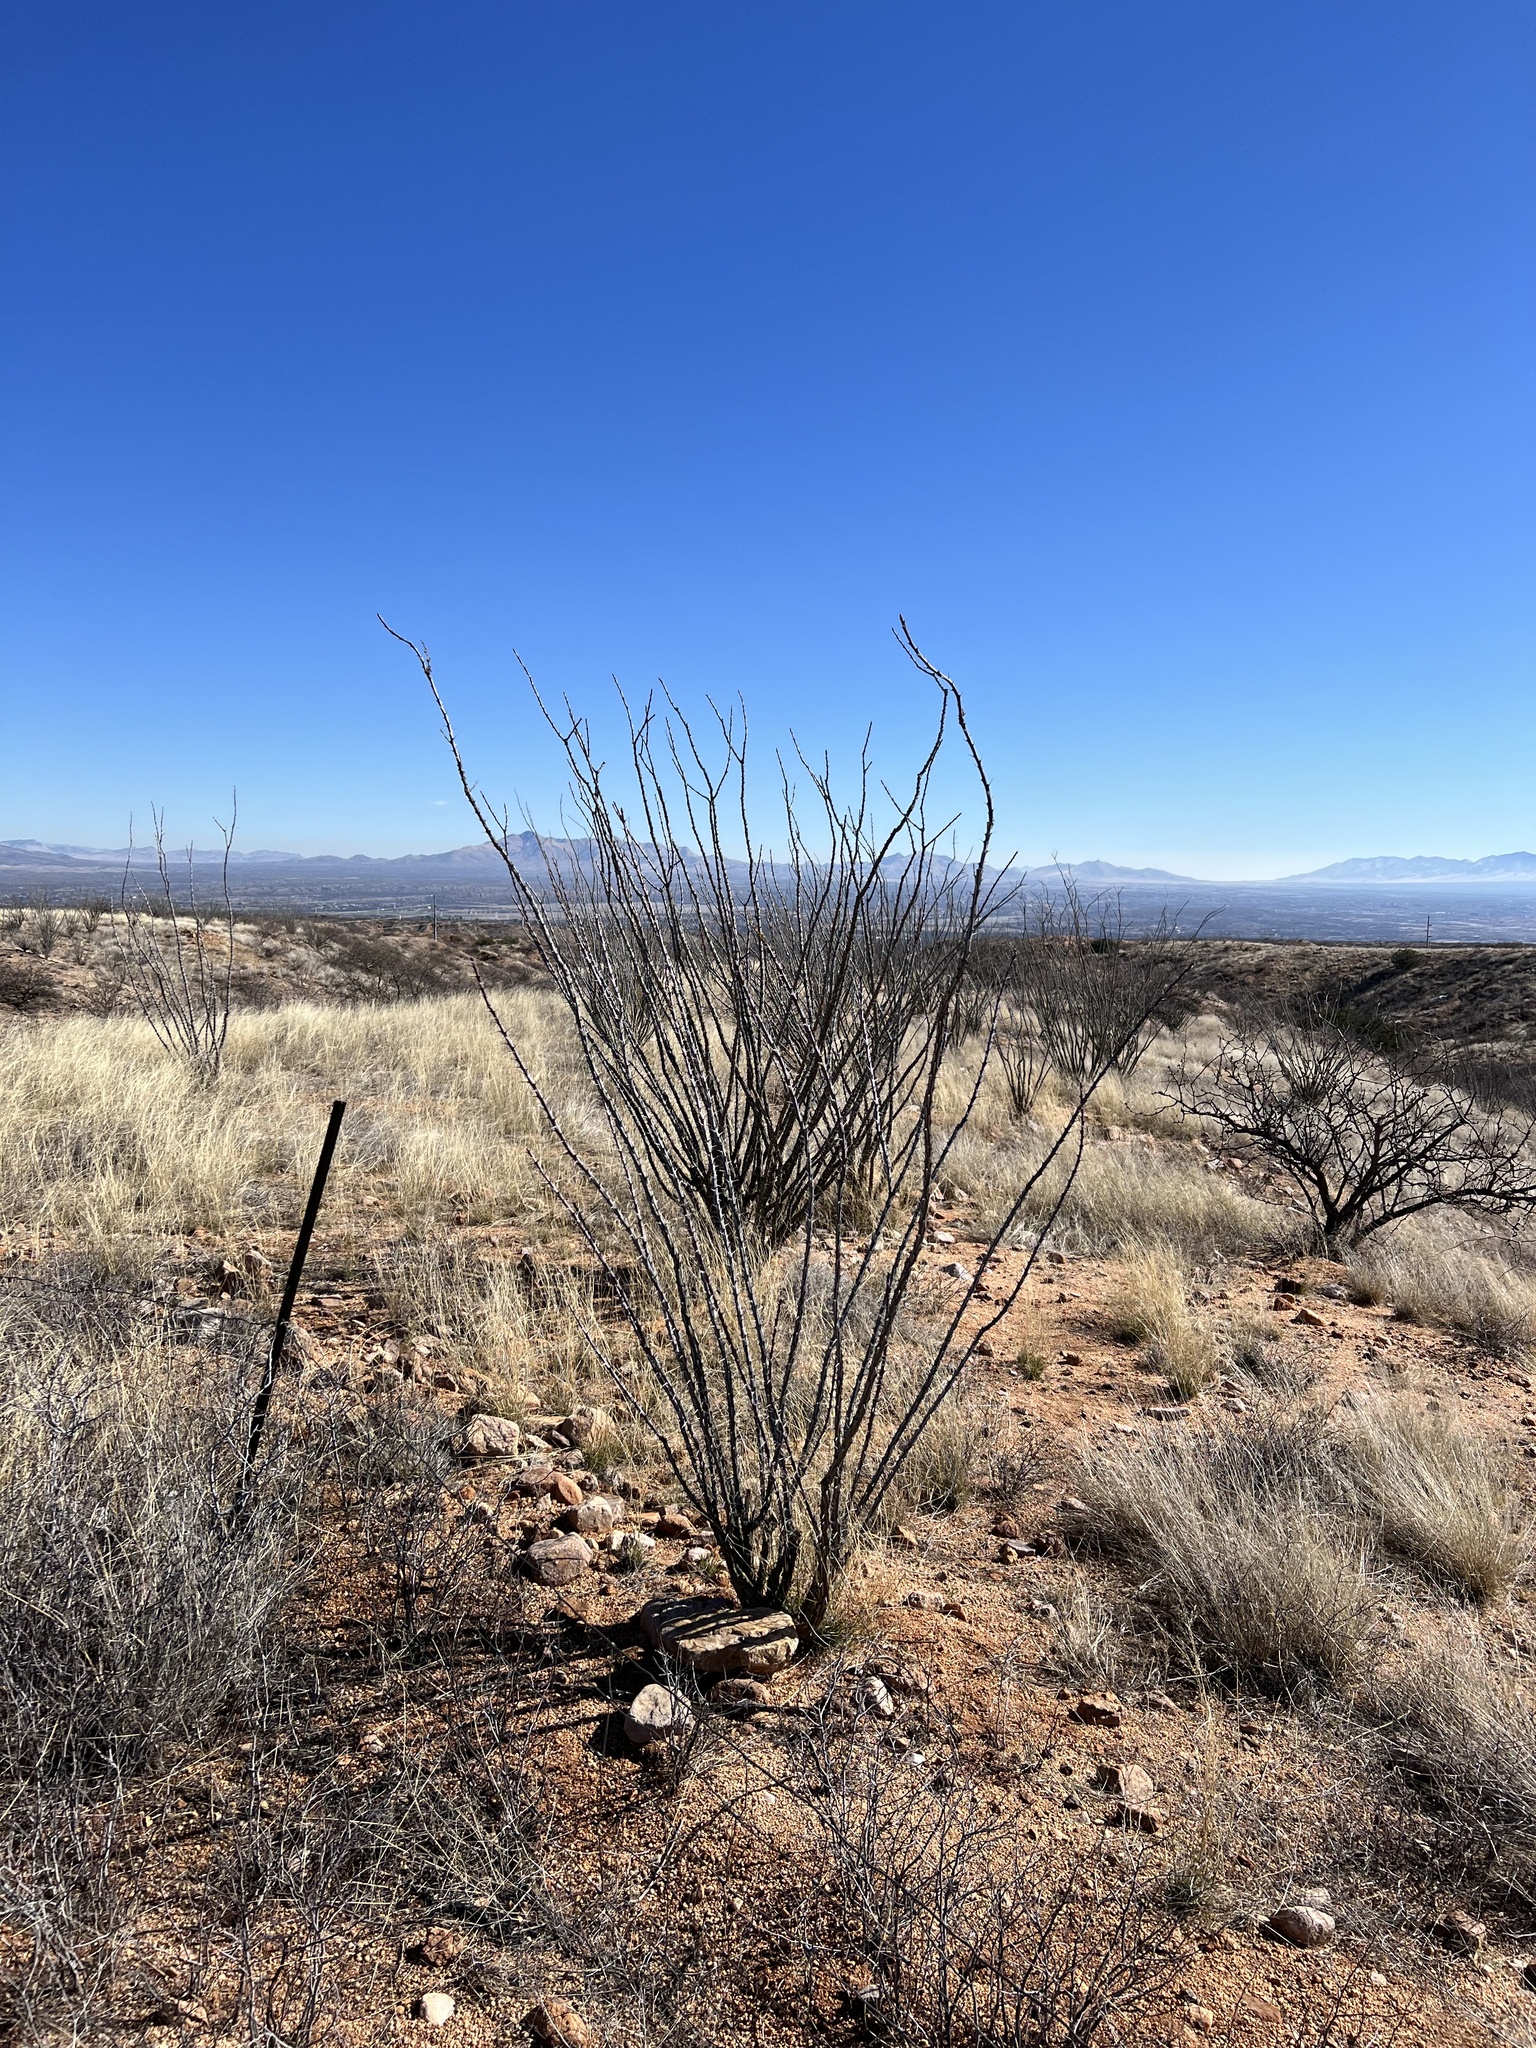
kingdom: Plantae
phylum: Tracheophyta
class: Magnoliopsida
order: Ericales
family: Fouquieriaceae
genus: Fouquieria
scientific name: Fouquieria splendens
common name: Vine-cactus
